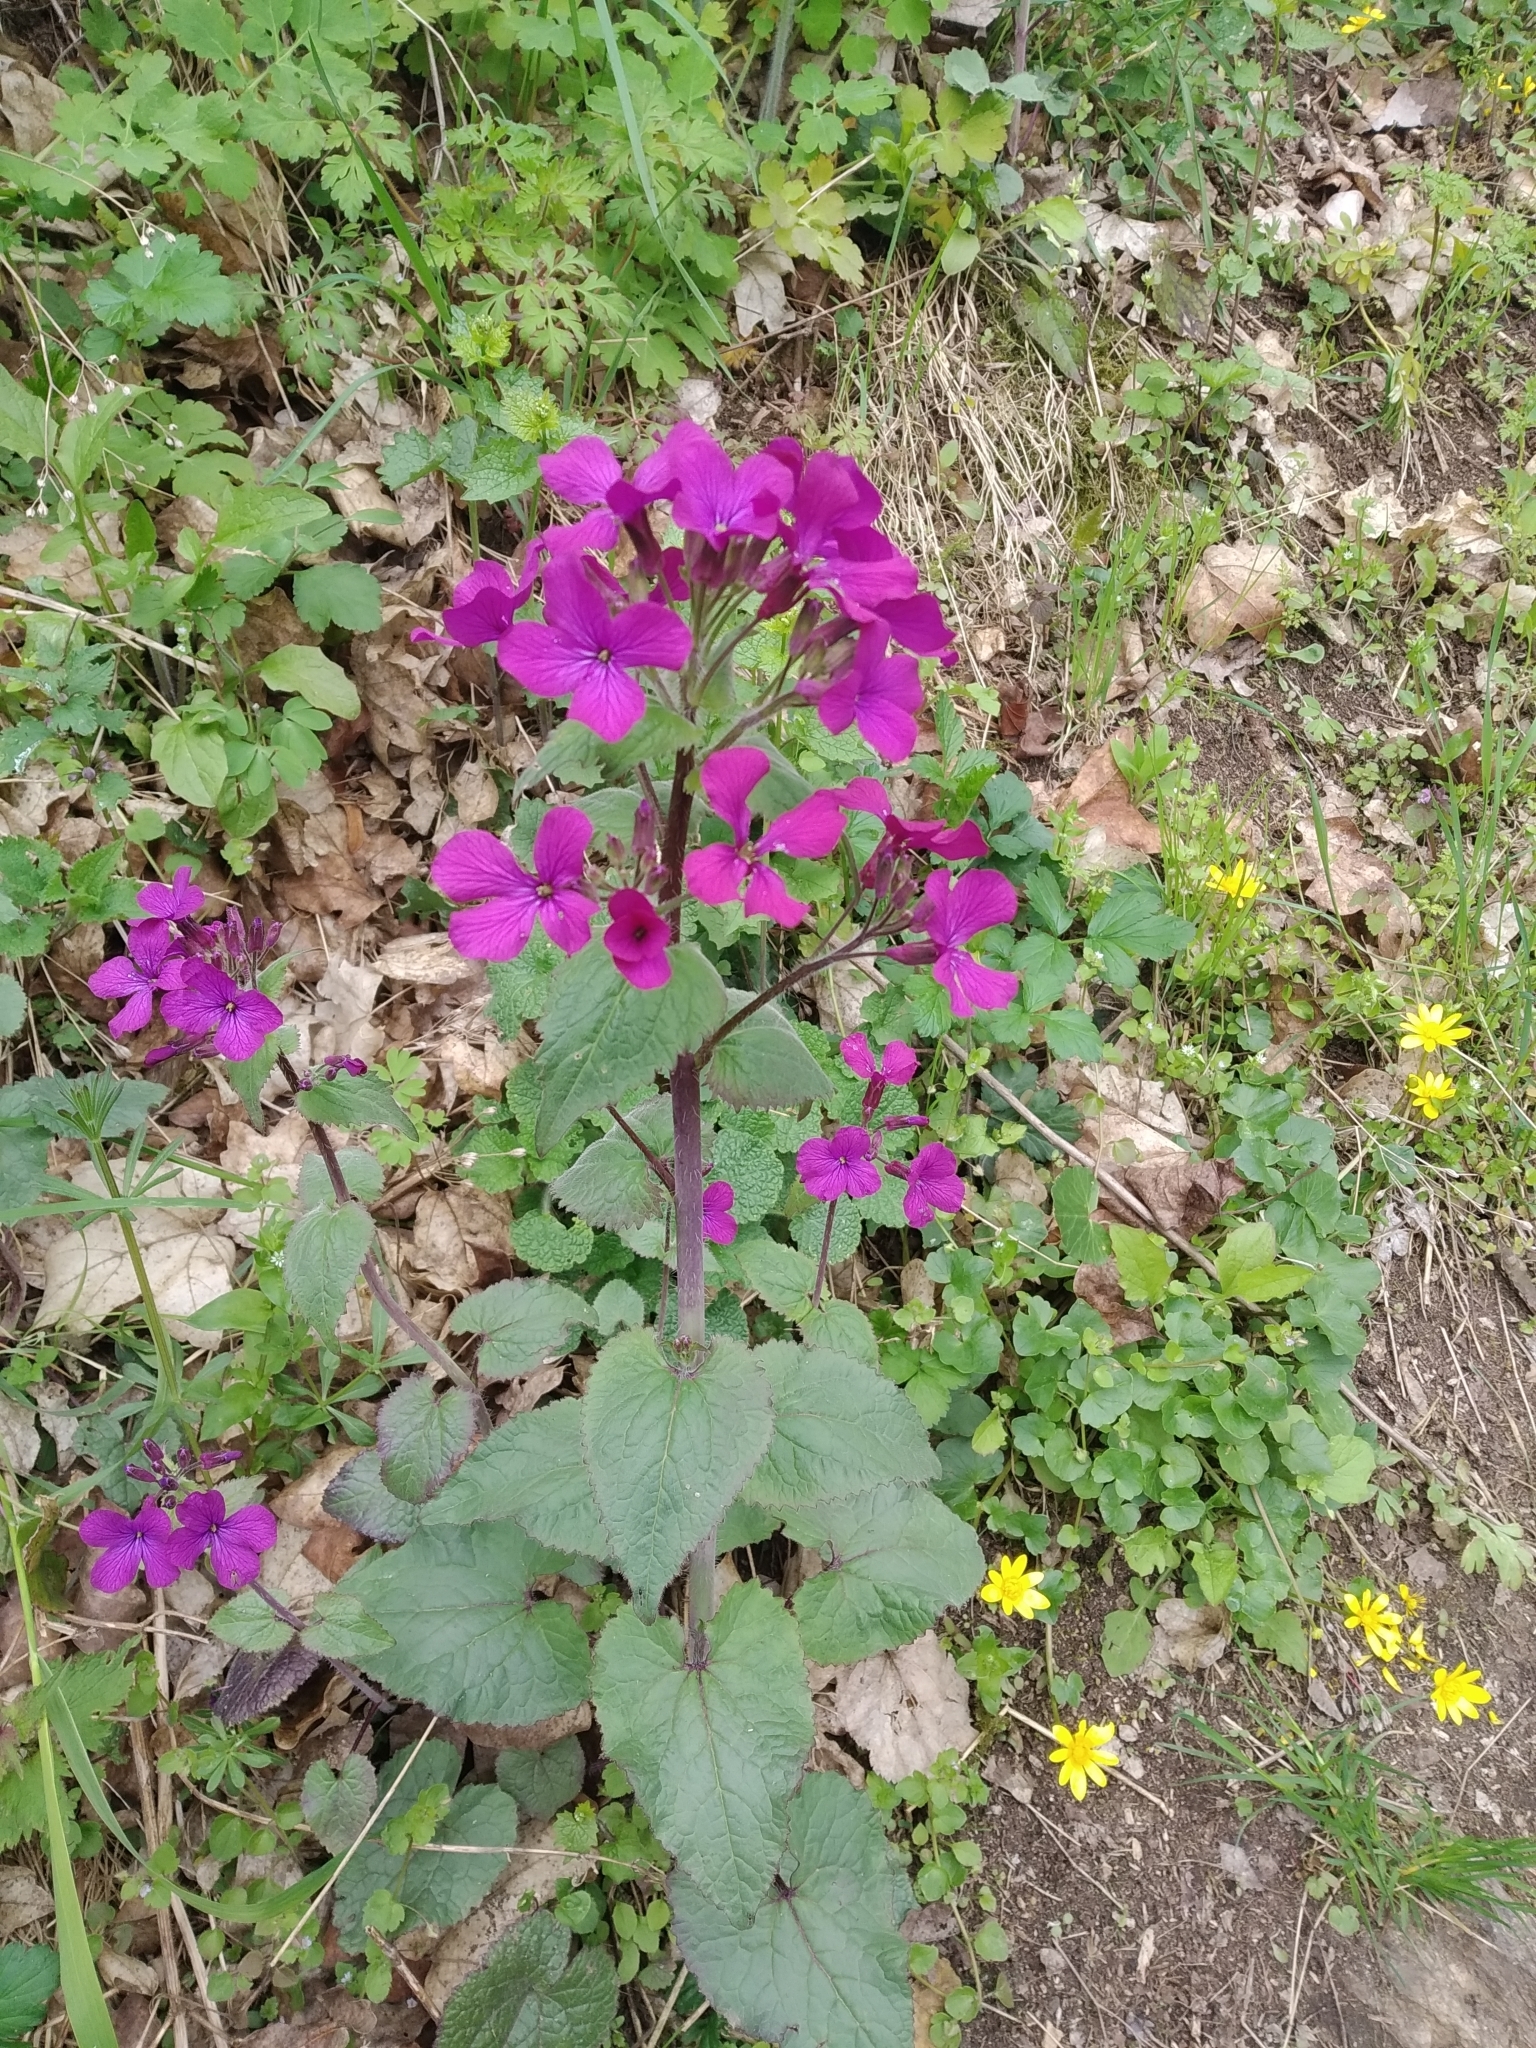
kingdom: Plantae
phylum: Tracheophyta
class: Magnoliopsida
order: Brassicales
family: Brassicaceae
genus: Lunaria
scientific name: Lunaria annua
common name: Honesty
